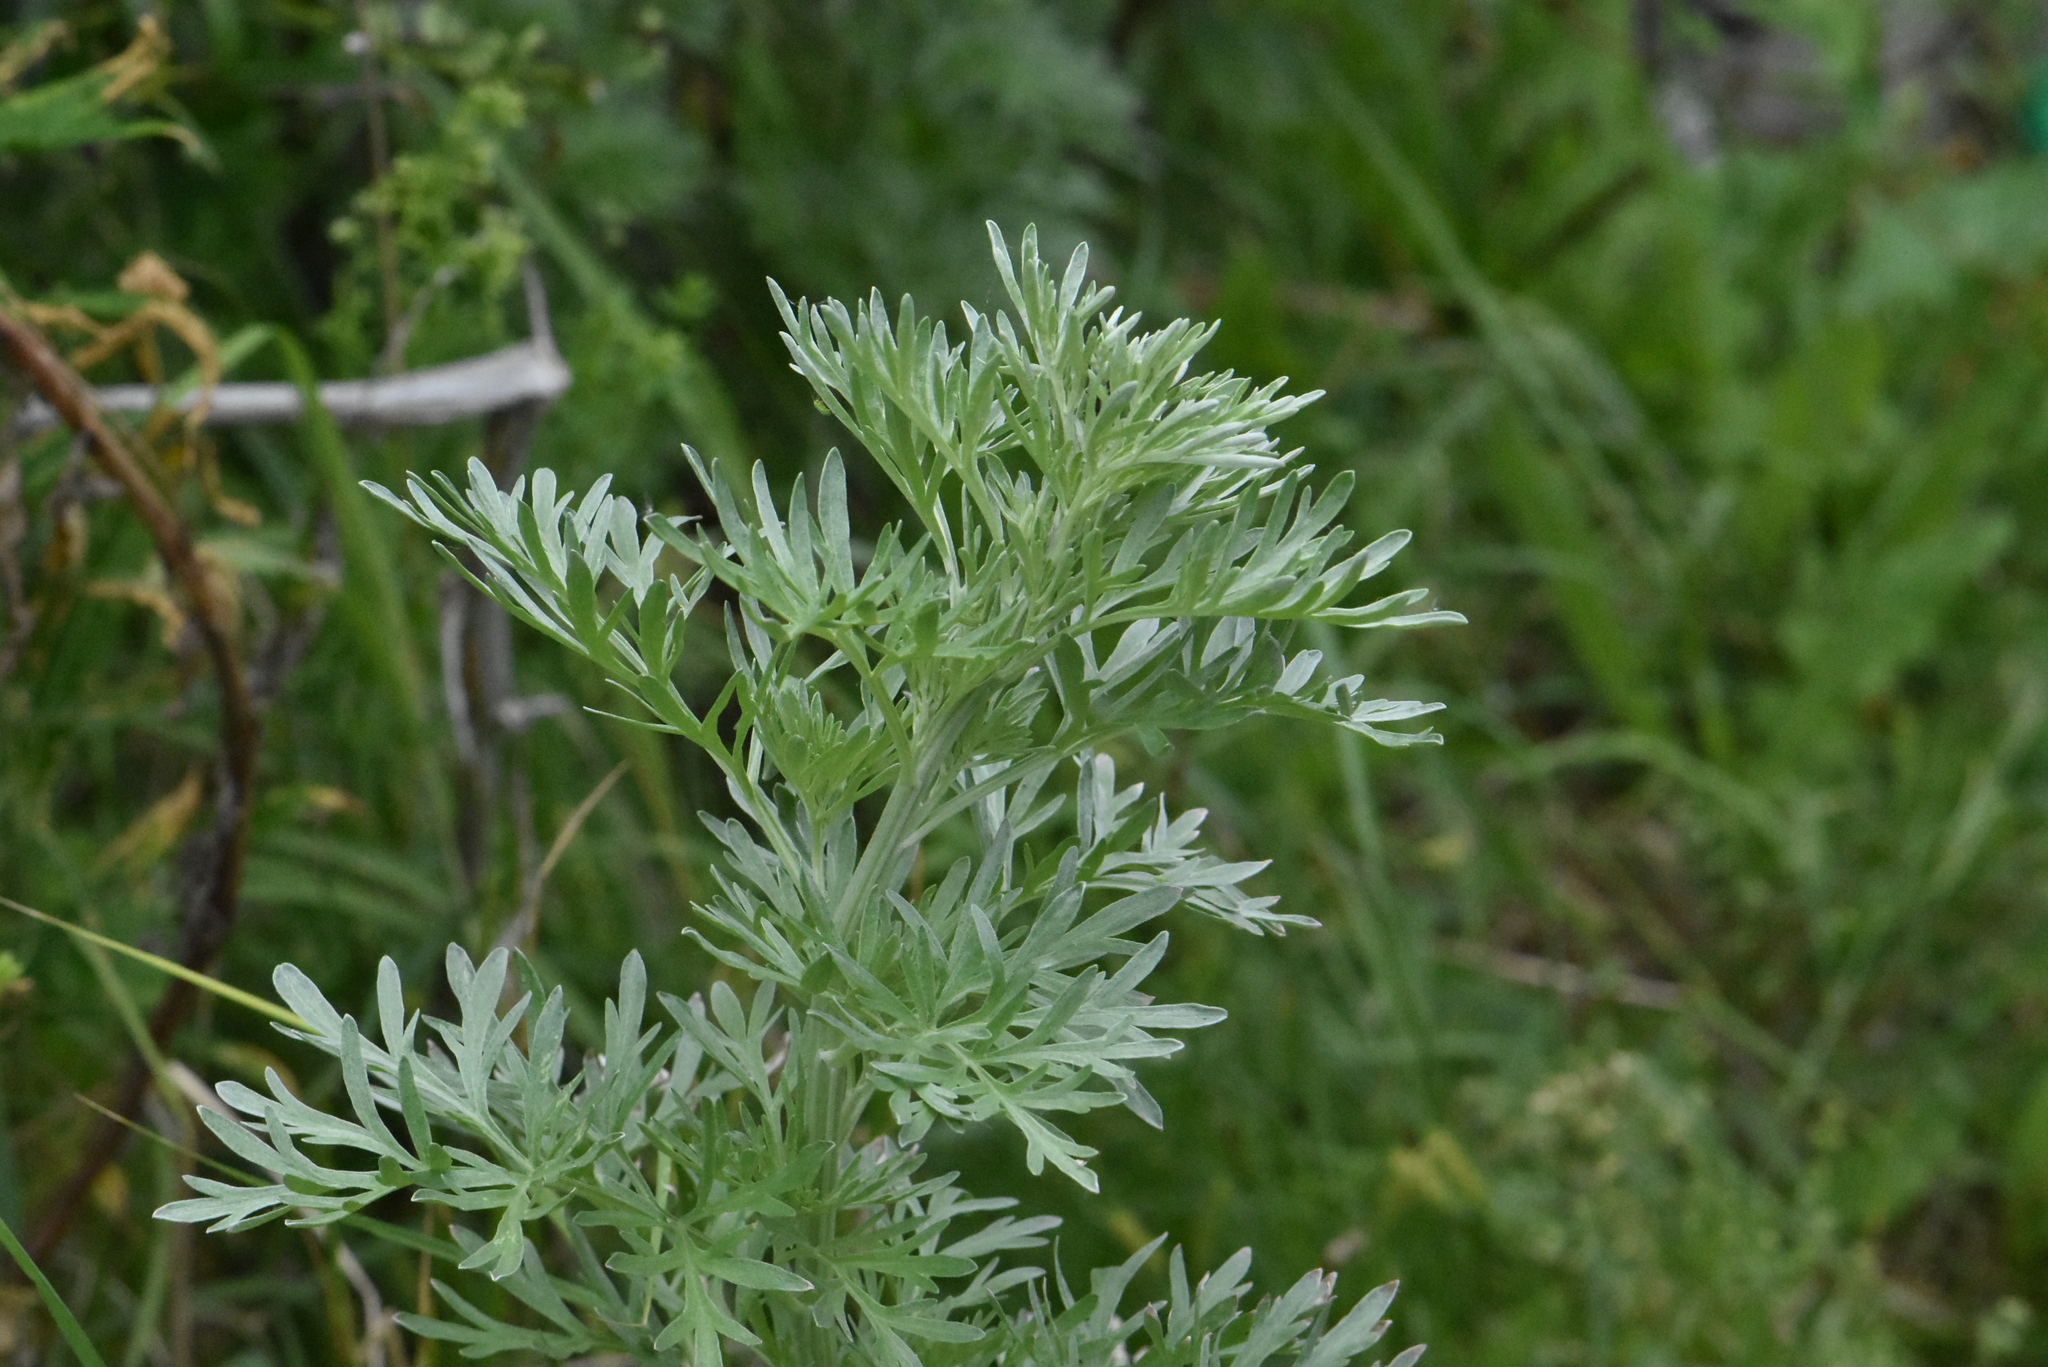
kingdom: Plantae
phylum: Tracheophyta
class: Magnoliopsida
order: Asterales
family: Asteraceae
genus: Artemisia
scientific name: Artemisia absinthium
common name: Wormwood
